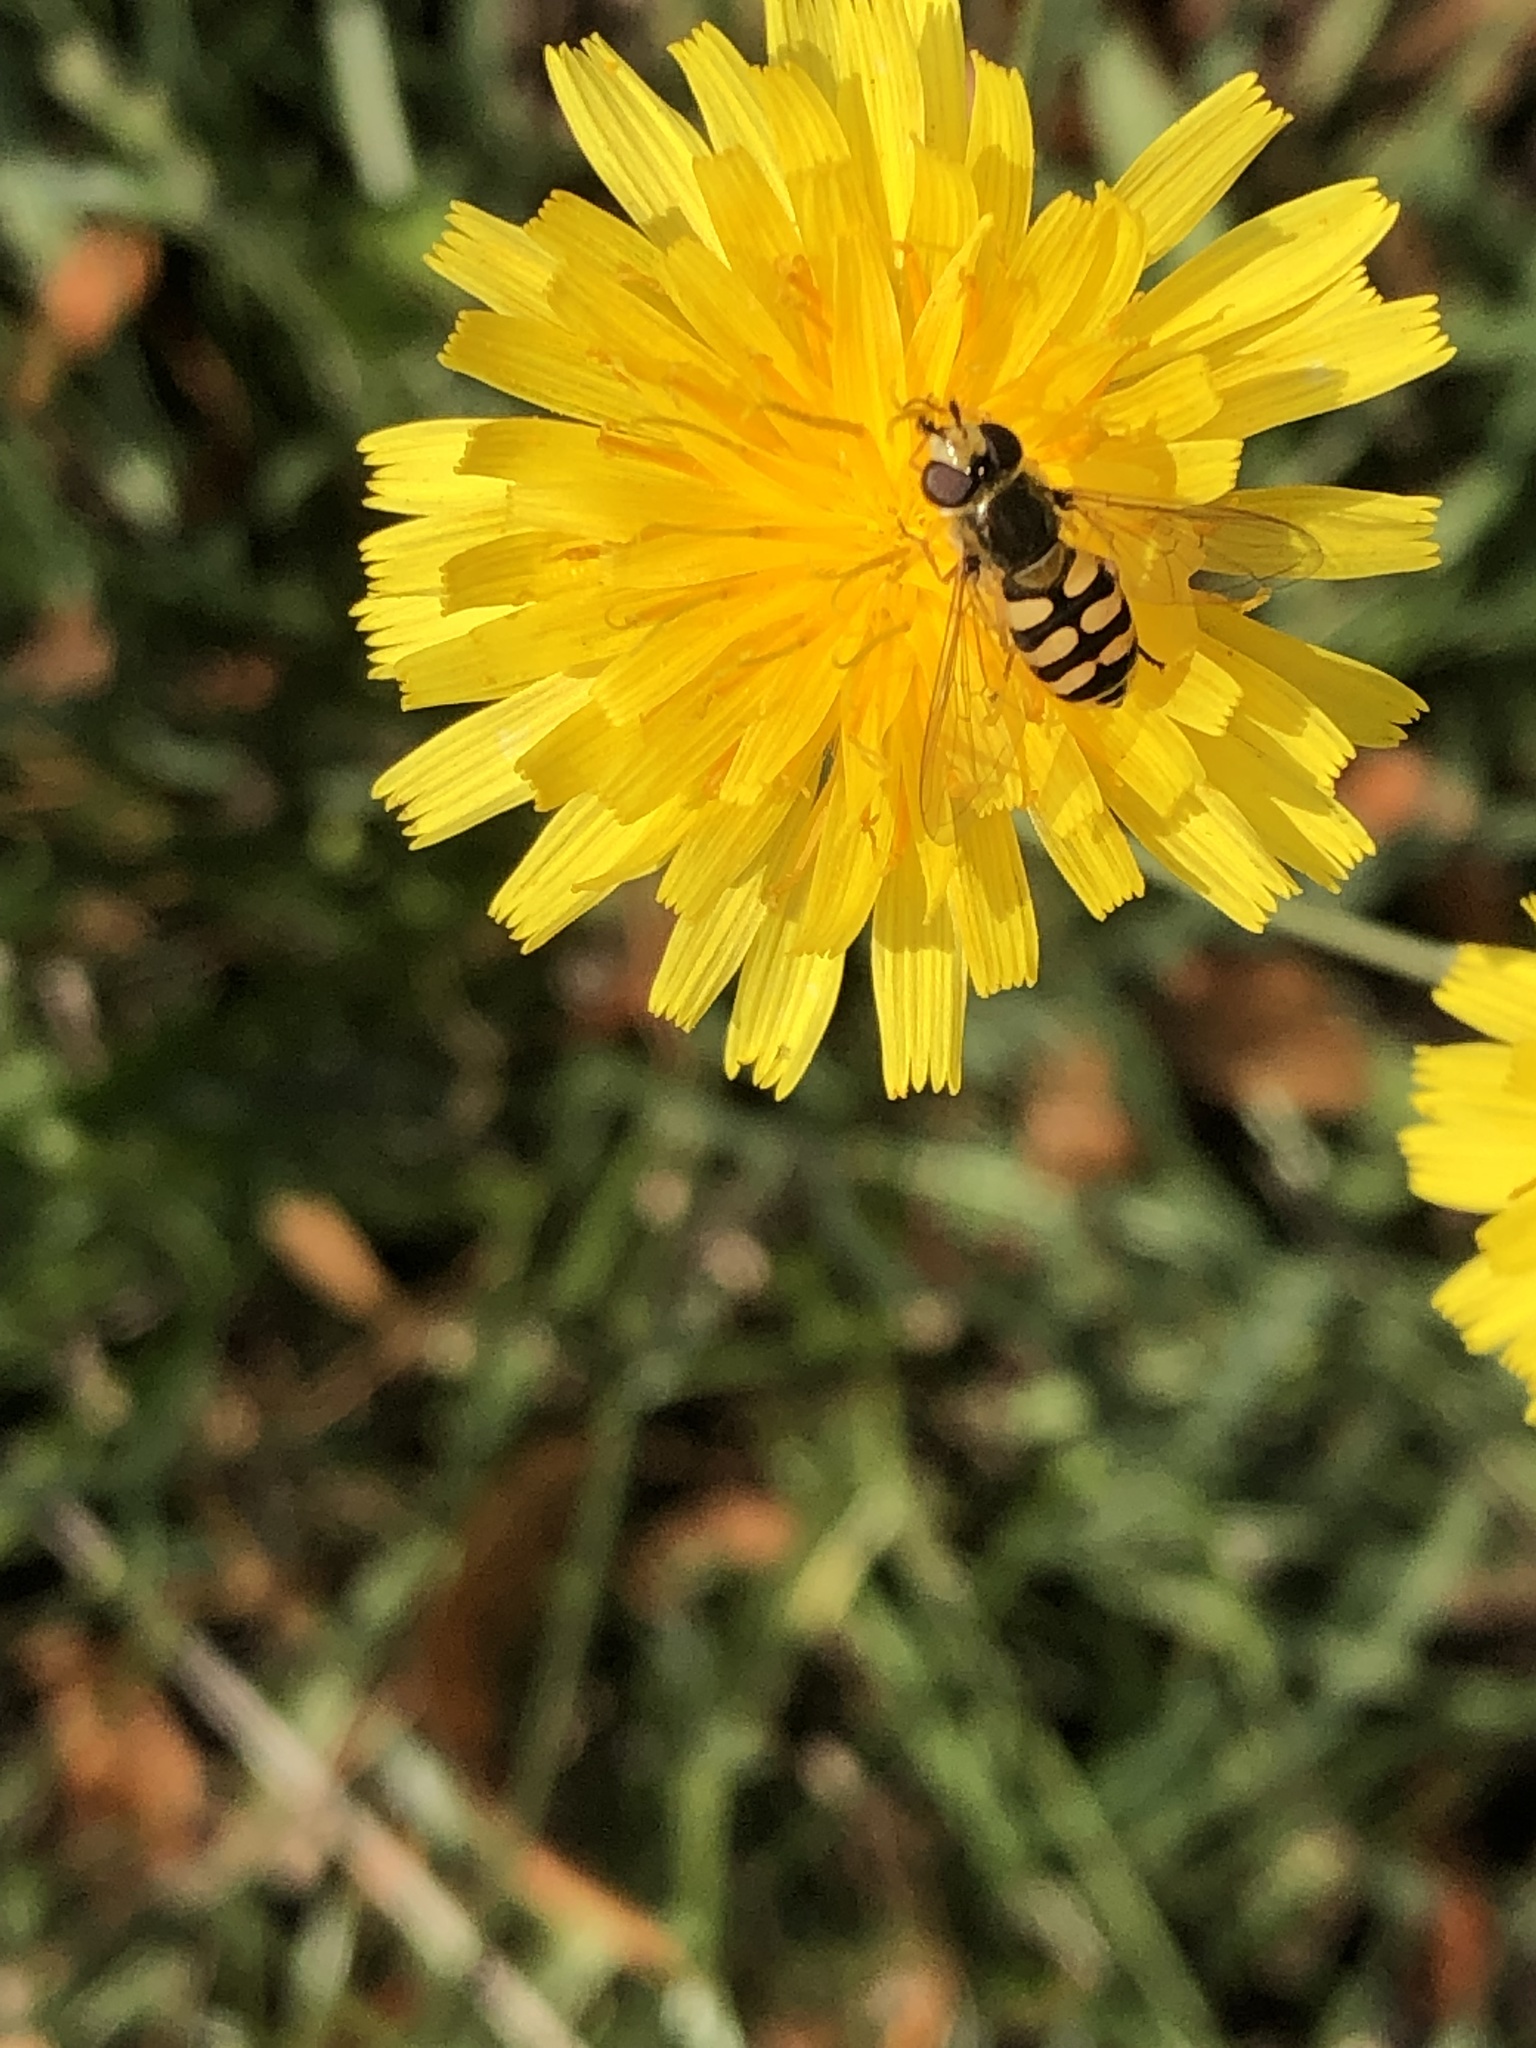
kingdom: Animalia
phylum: Arthropoda
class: Insecta
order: Diptera
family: Syrphidae
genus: Eupeodes
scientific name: Eupeodes corollae
